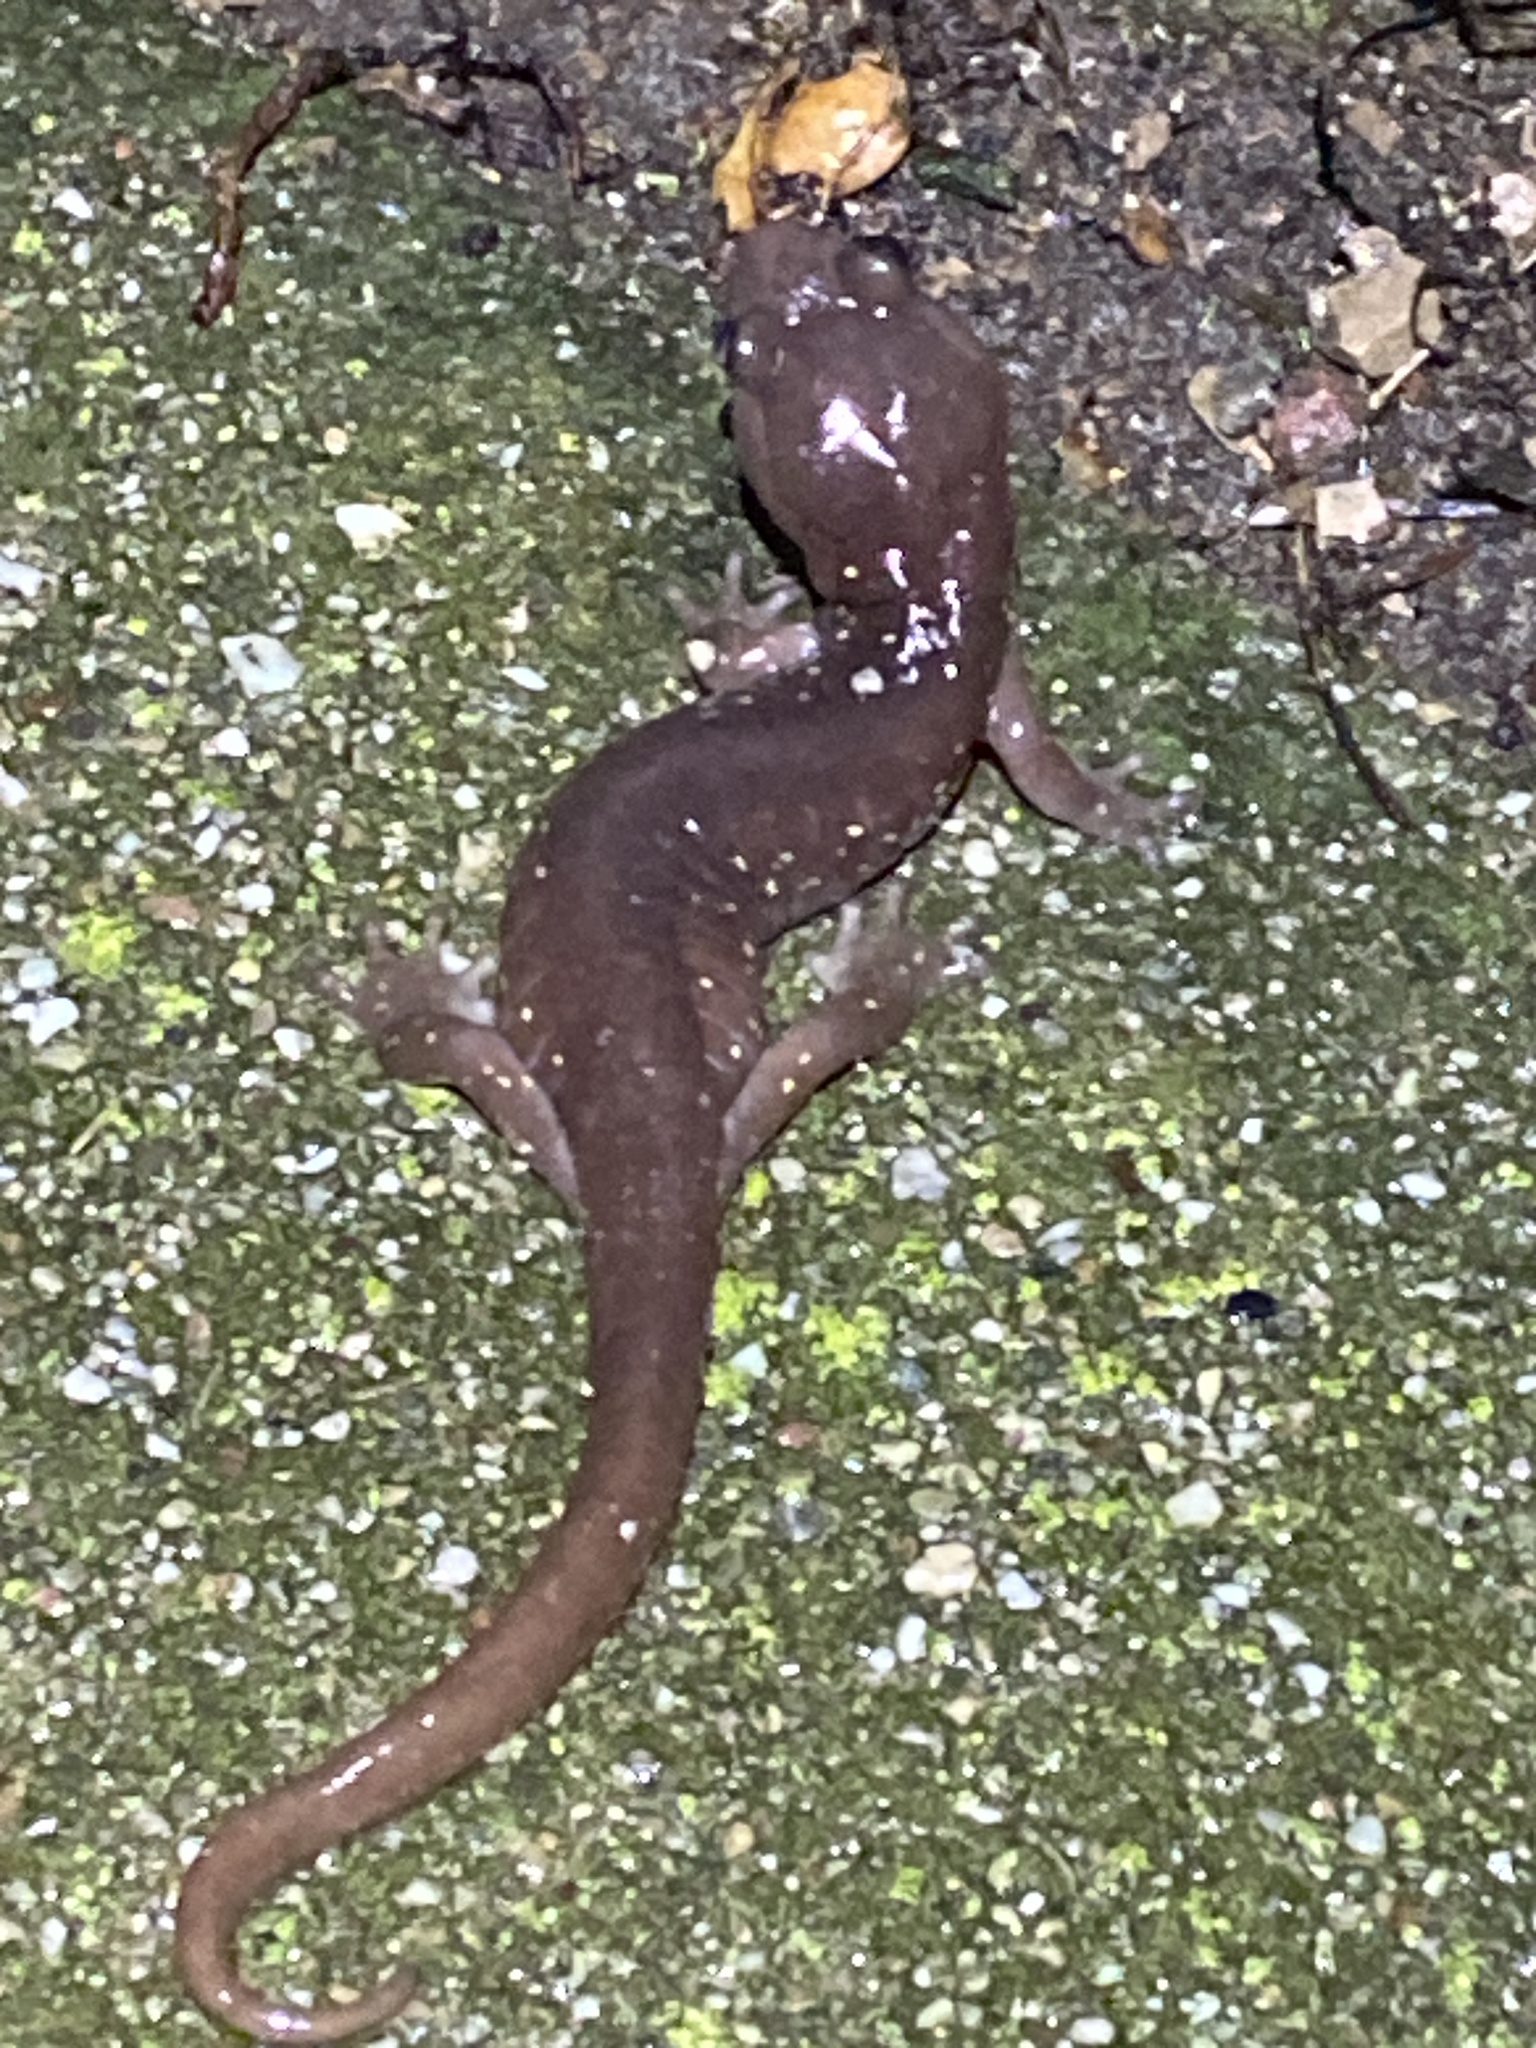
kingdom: Animalia
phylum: Chordata
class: Amphibia
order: Caudata
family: Plethodontidae
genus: Aneides
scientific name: Aneides lugubris
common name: Arboreal salamander
